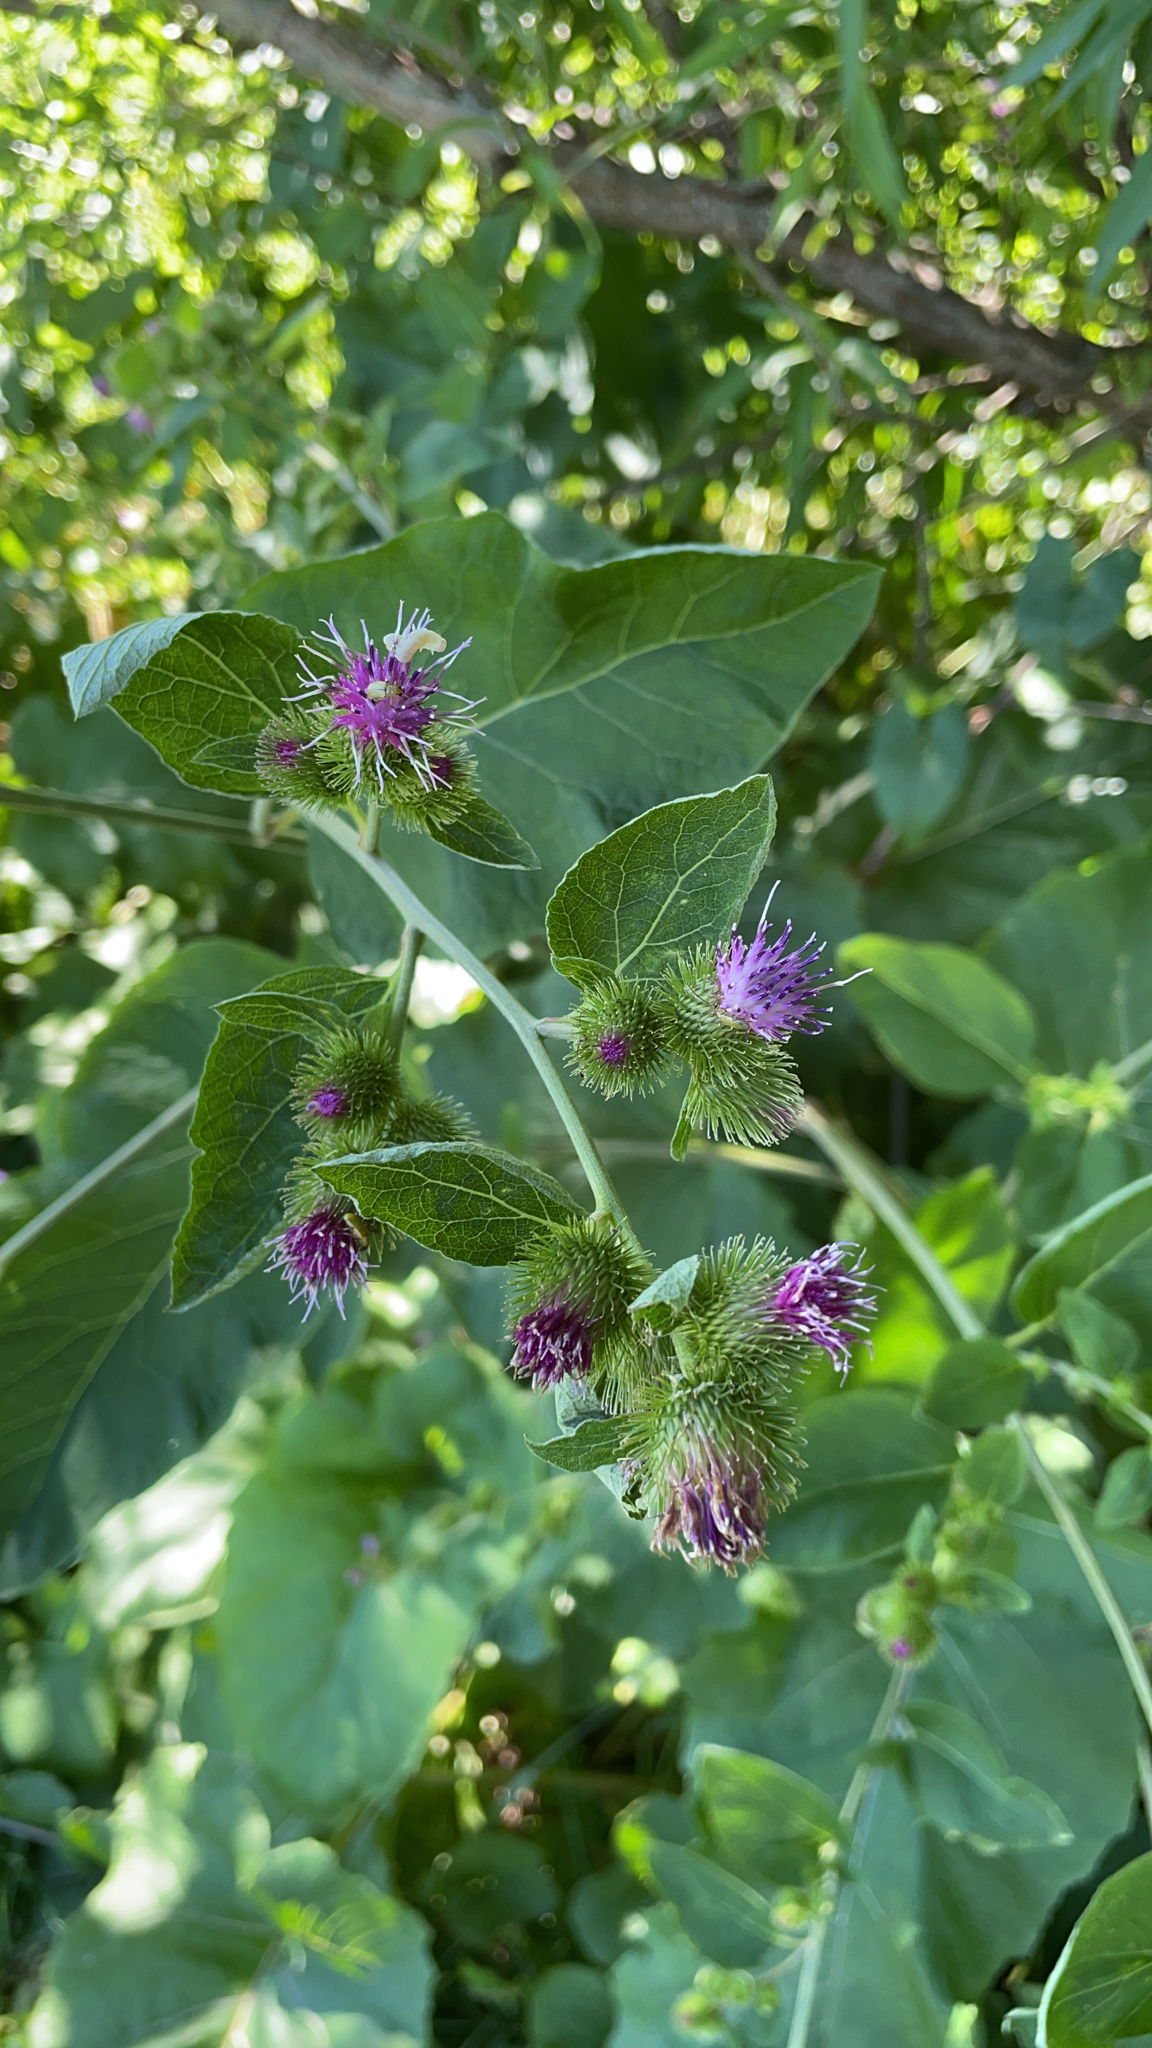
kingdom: Plantae
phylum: Tracheophyta
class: Magnoliopsida
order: Asterales
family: Asteraceae
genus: Arctium
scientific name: Arctium minus
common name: Lesser burdock
